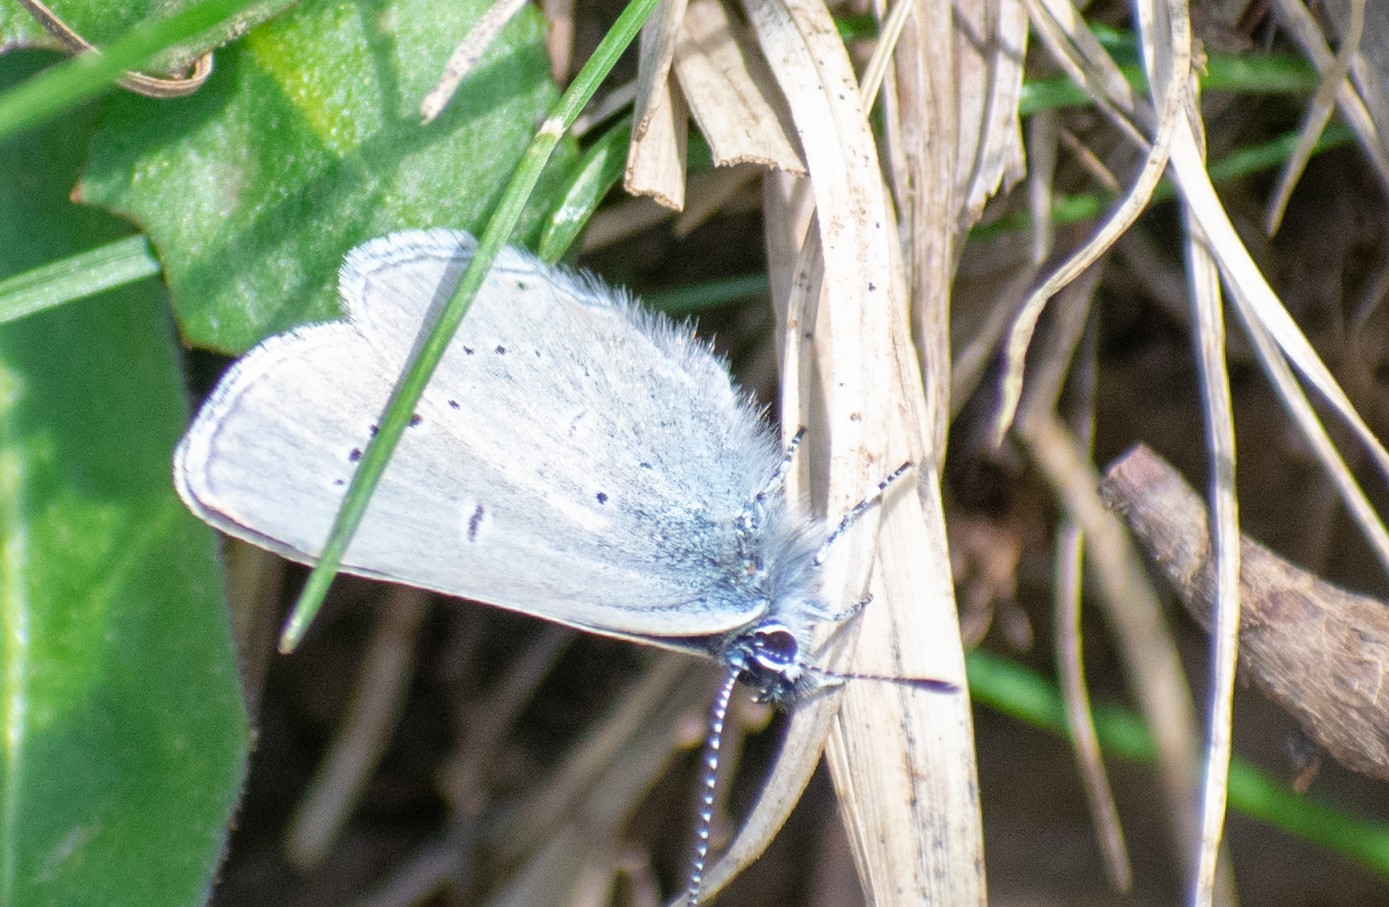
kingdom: Animalia
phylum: Arthropoda
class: Insecta
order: Lepidoptera
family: Lycaenidae
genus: Cupido
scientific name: Cupido minimus
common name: Small blue
